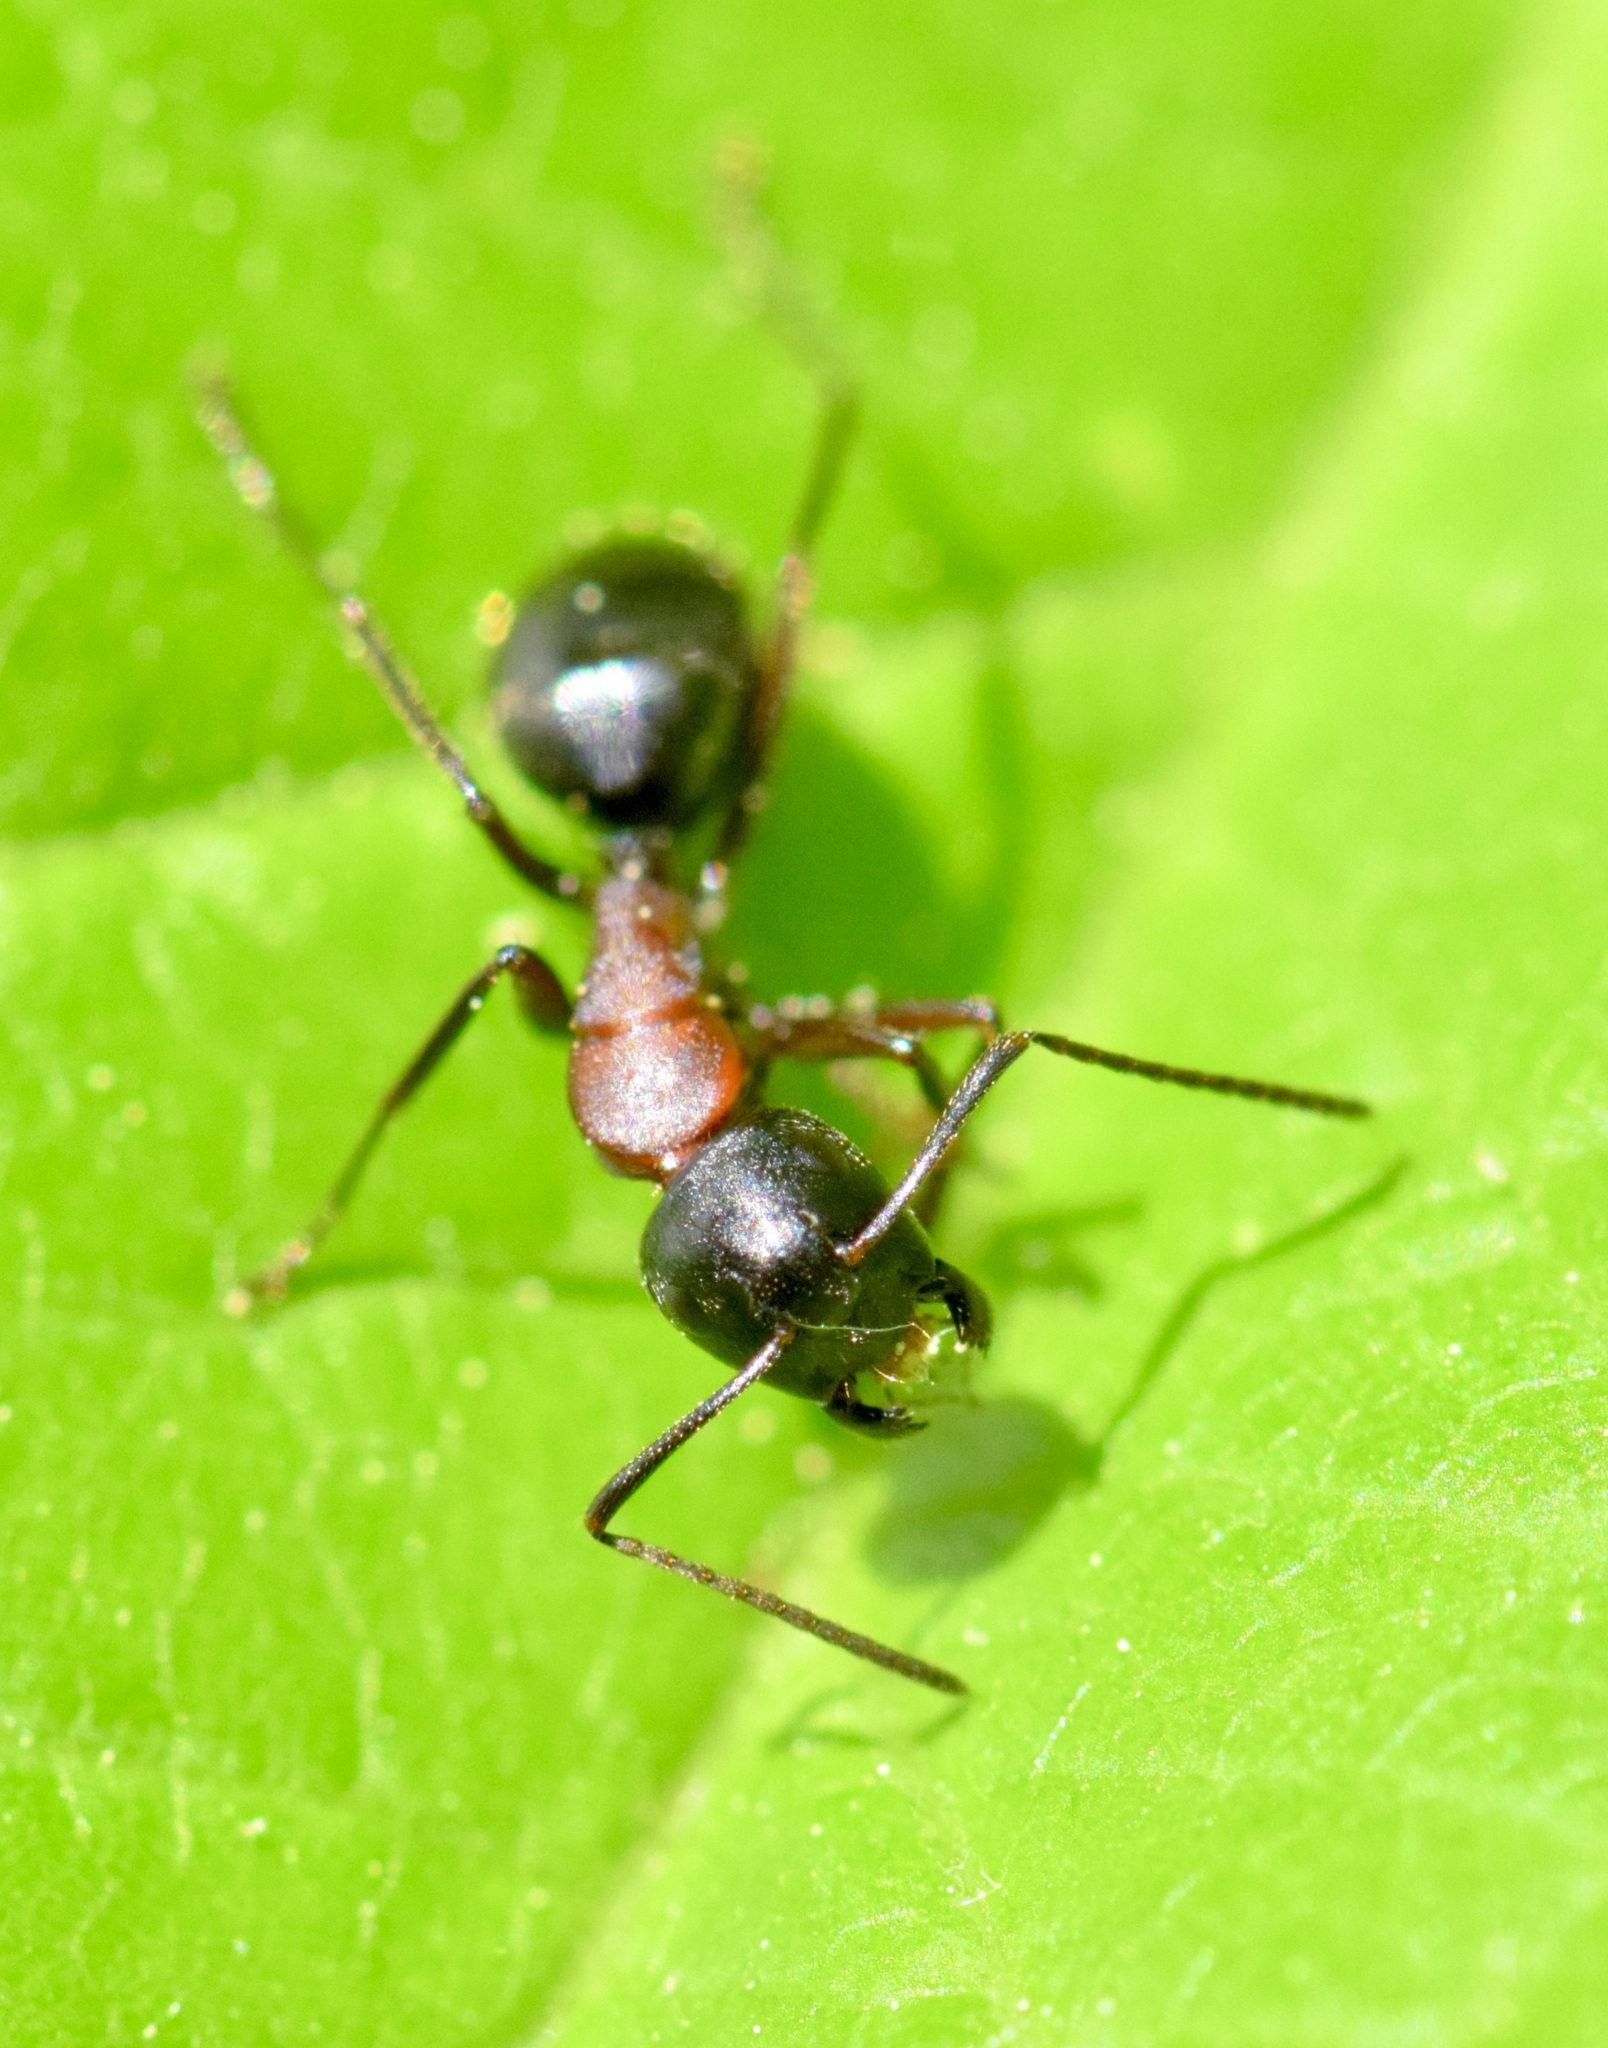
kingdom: Animalia
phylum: Arthropoda
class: Insecta
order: Hymenoptera
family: Formicidae
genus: Camponotus
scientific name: Camponotus novaeboracensis
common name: New york carpenter ant
